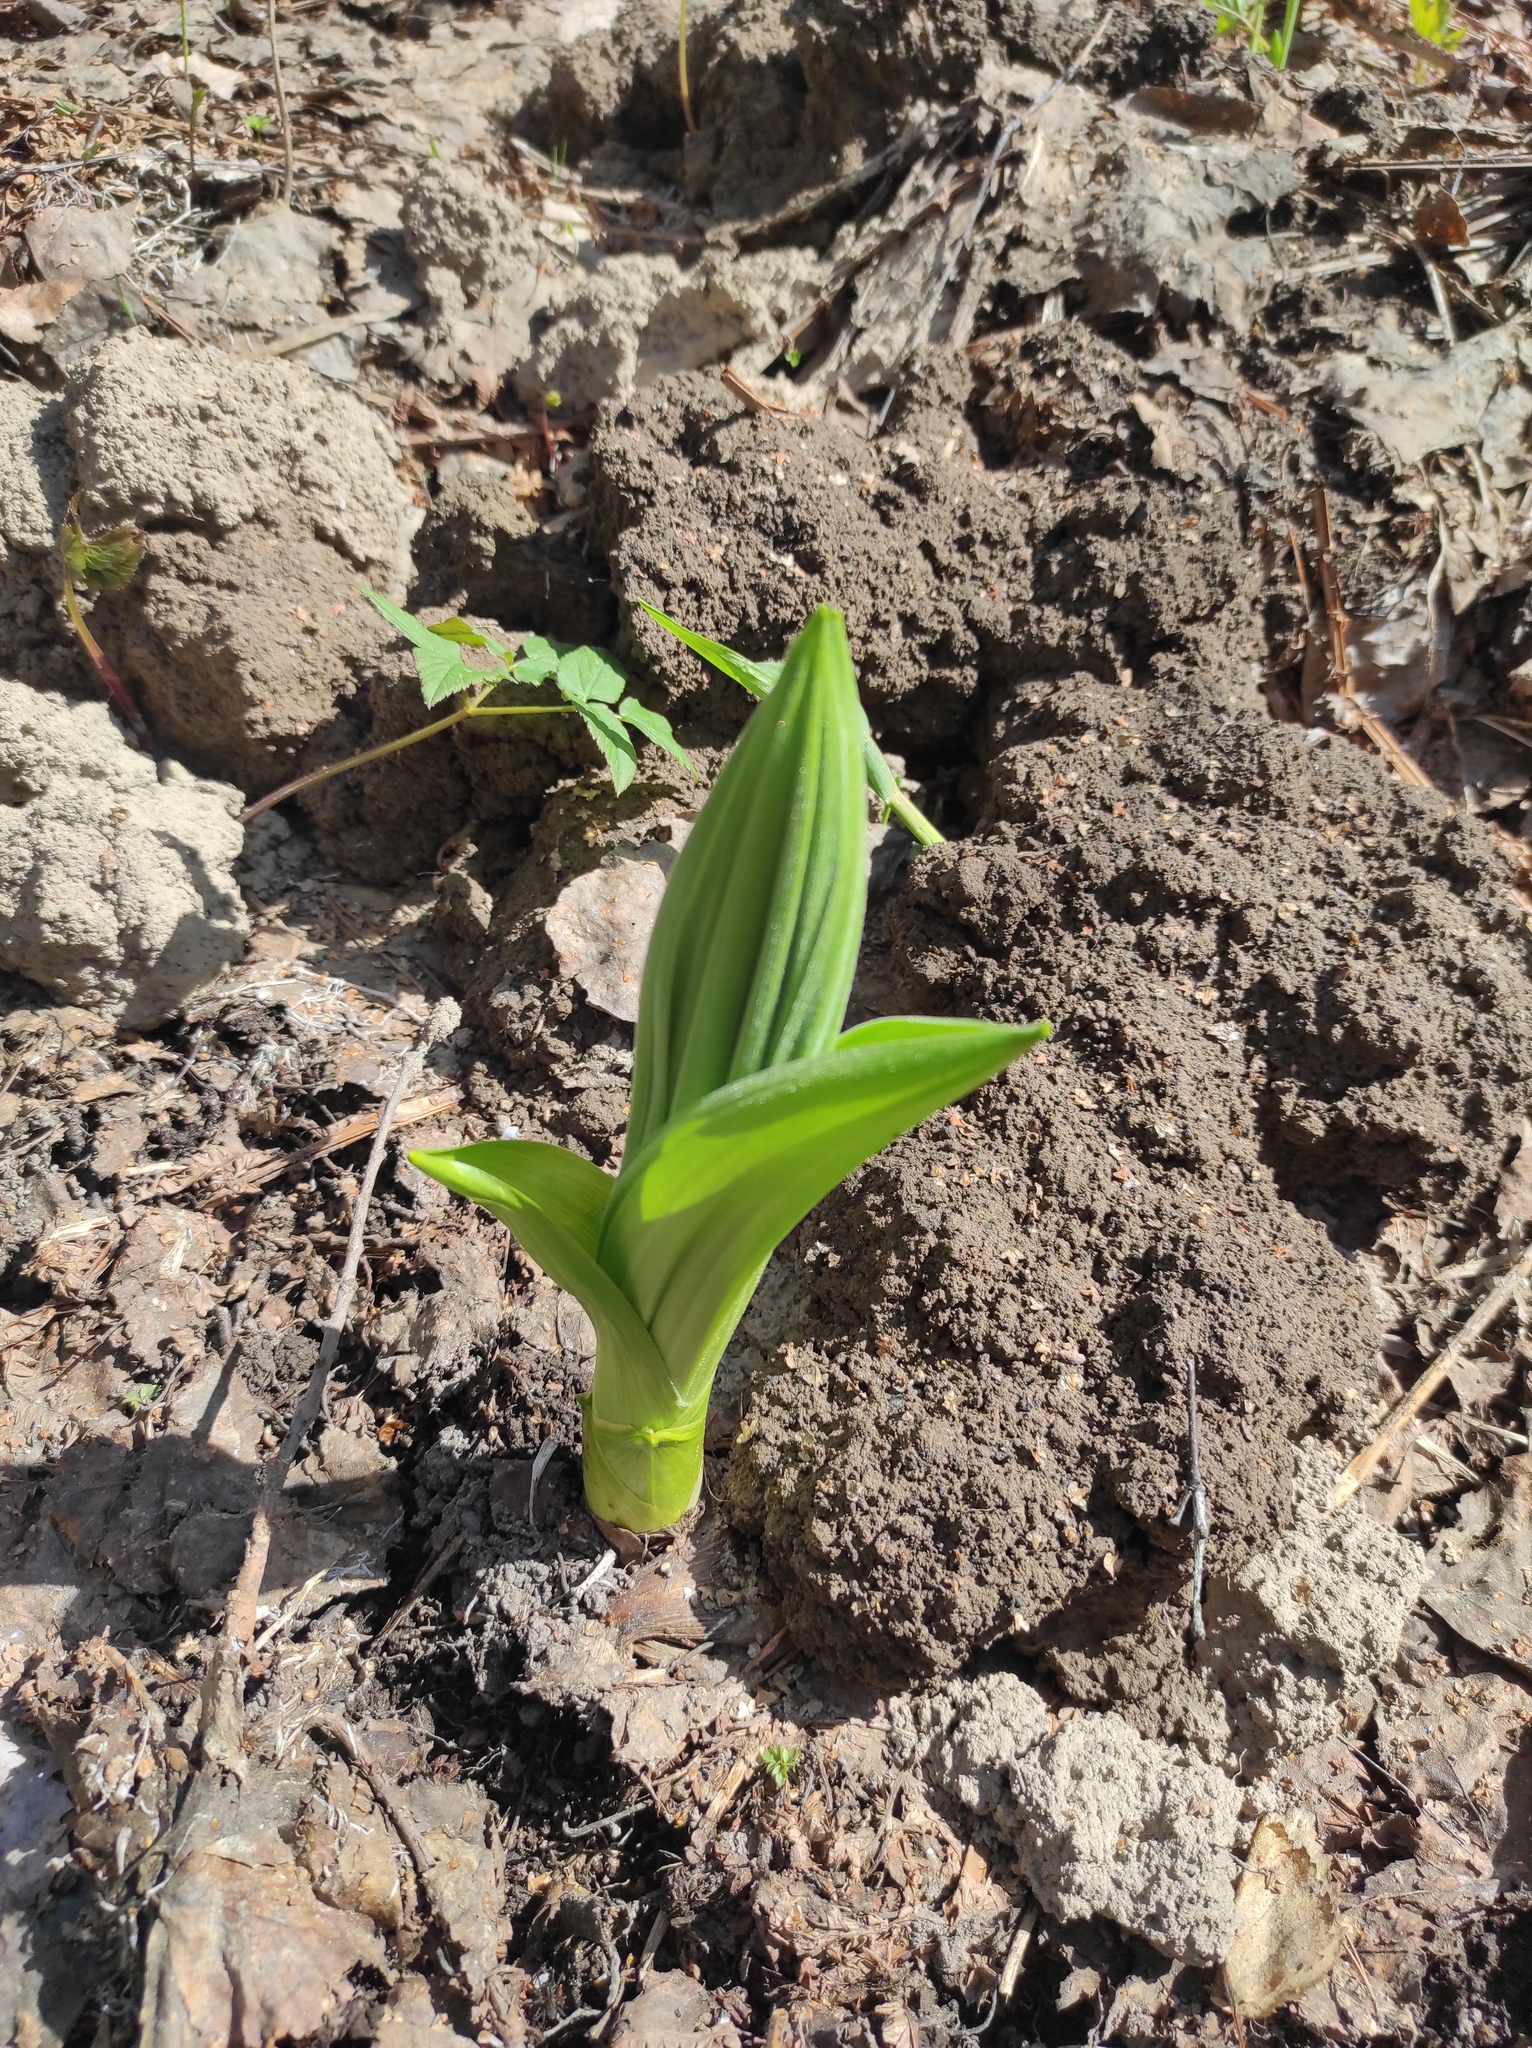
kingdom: Plantae
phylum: Tracheophyta
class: Liliopsida
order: Liliales
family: Melanthiaceae
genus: Veratrum
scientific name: Veratrum lobelianum
